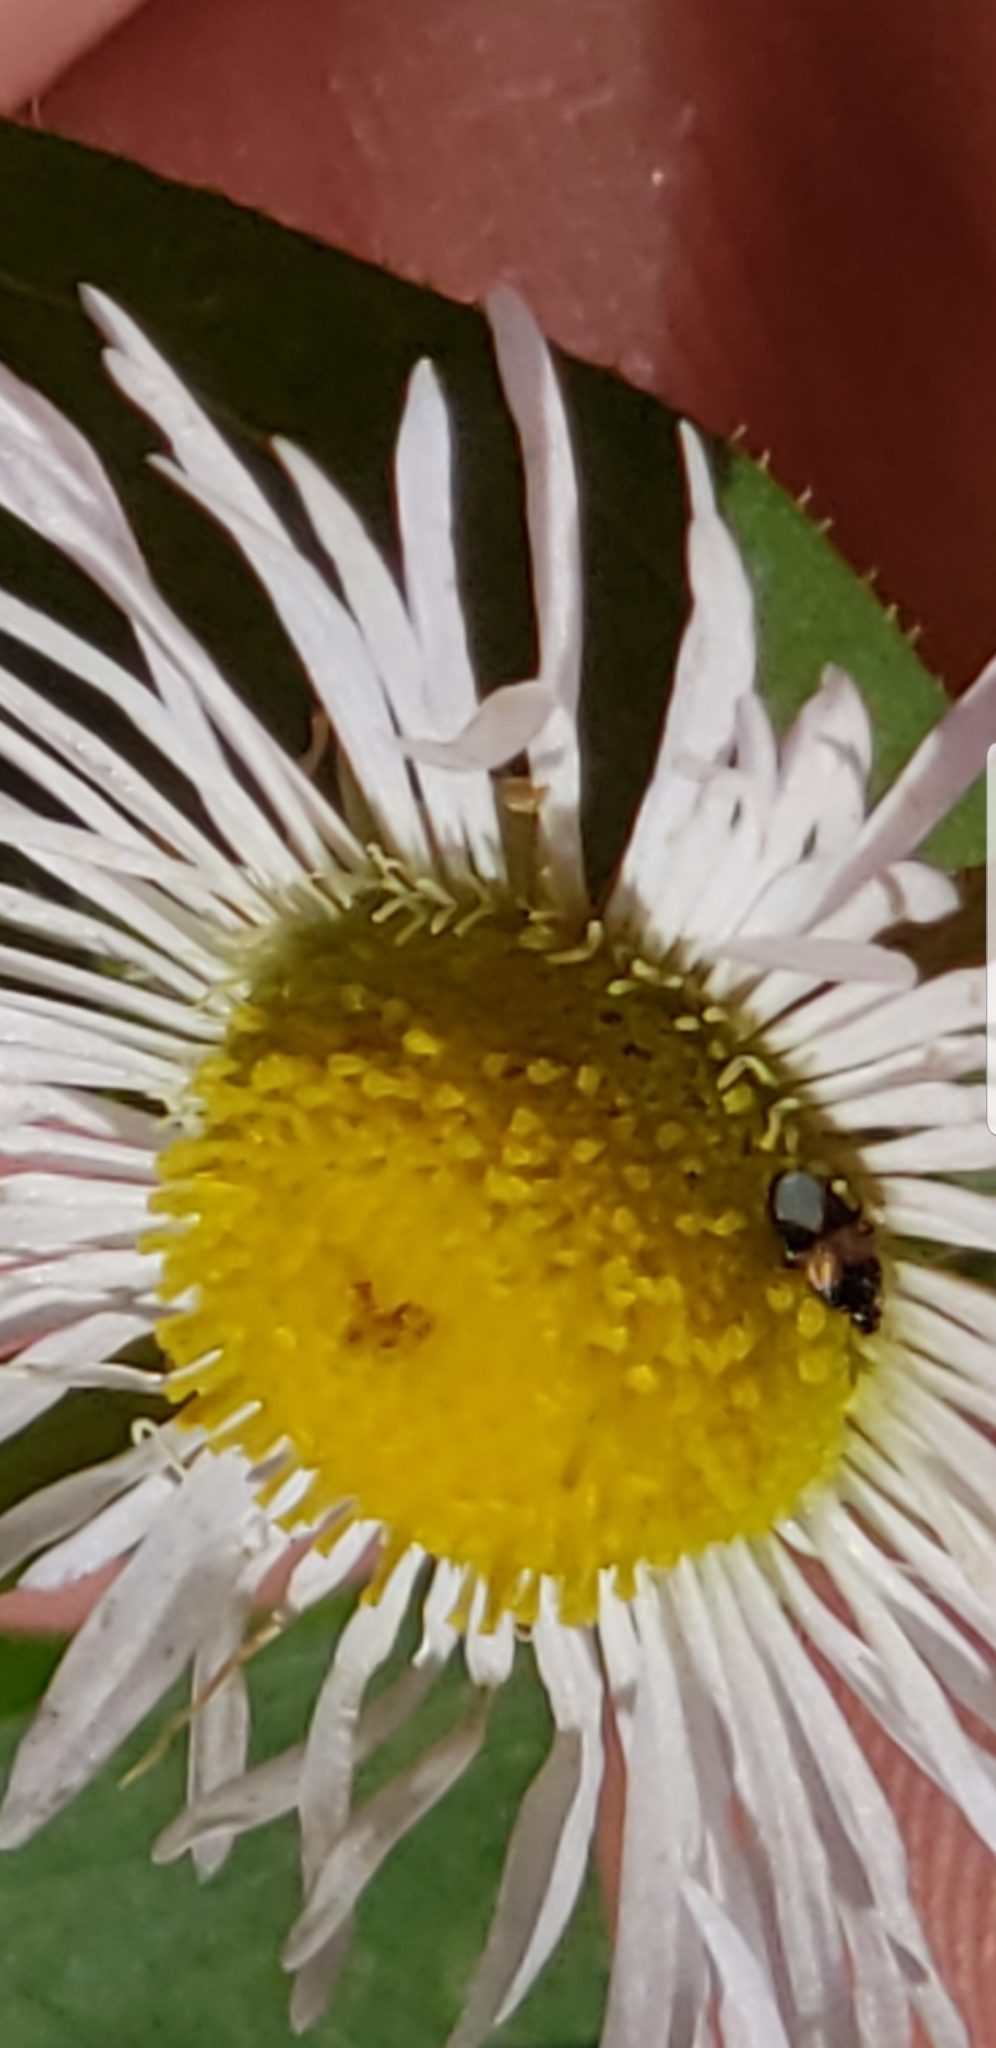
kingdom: Animalia
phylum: Arthropoda
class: Insecta
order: Hemiptera
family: Anthocoridae
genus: Orius
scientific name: Orius insidiosus
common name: Insidious flower bug
